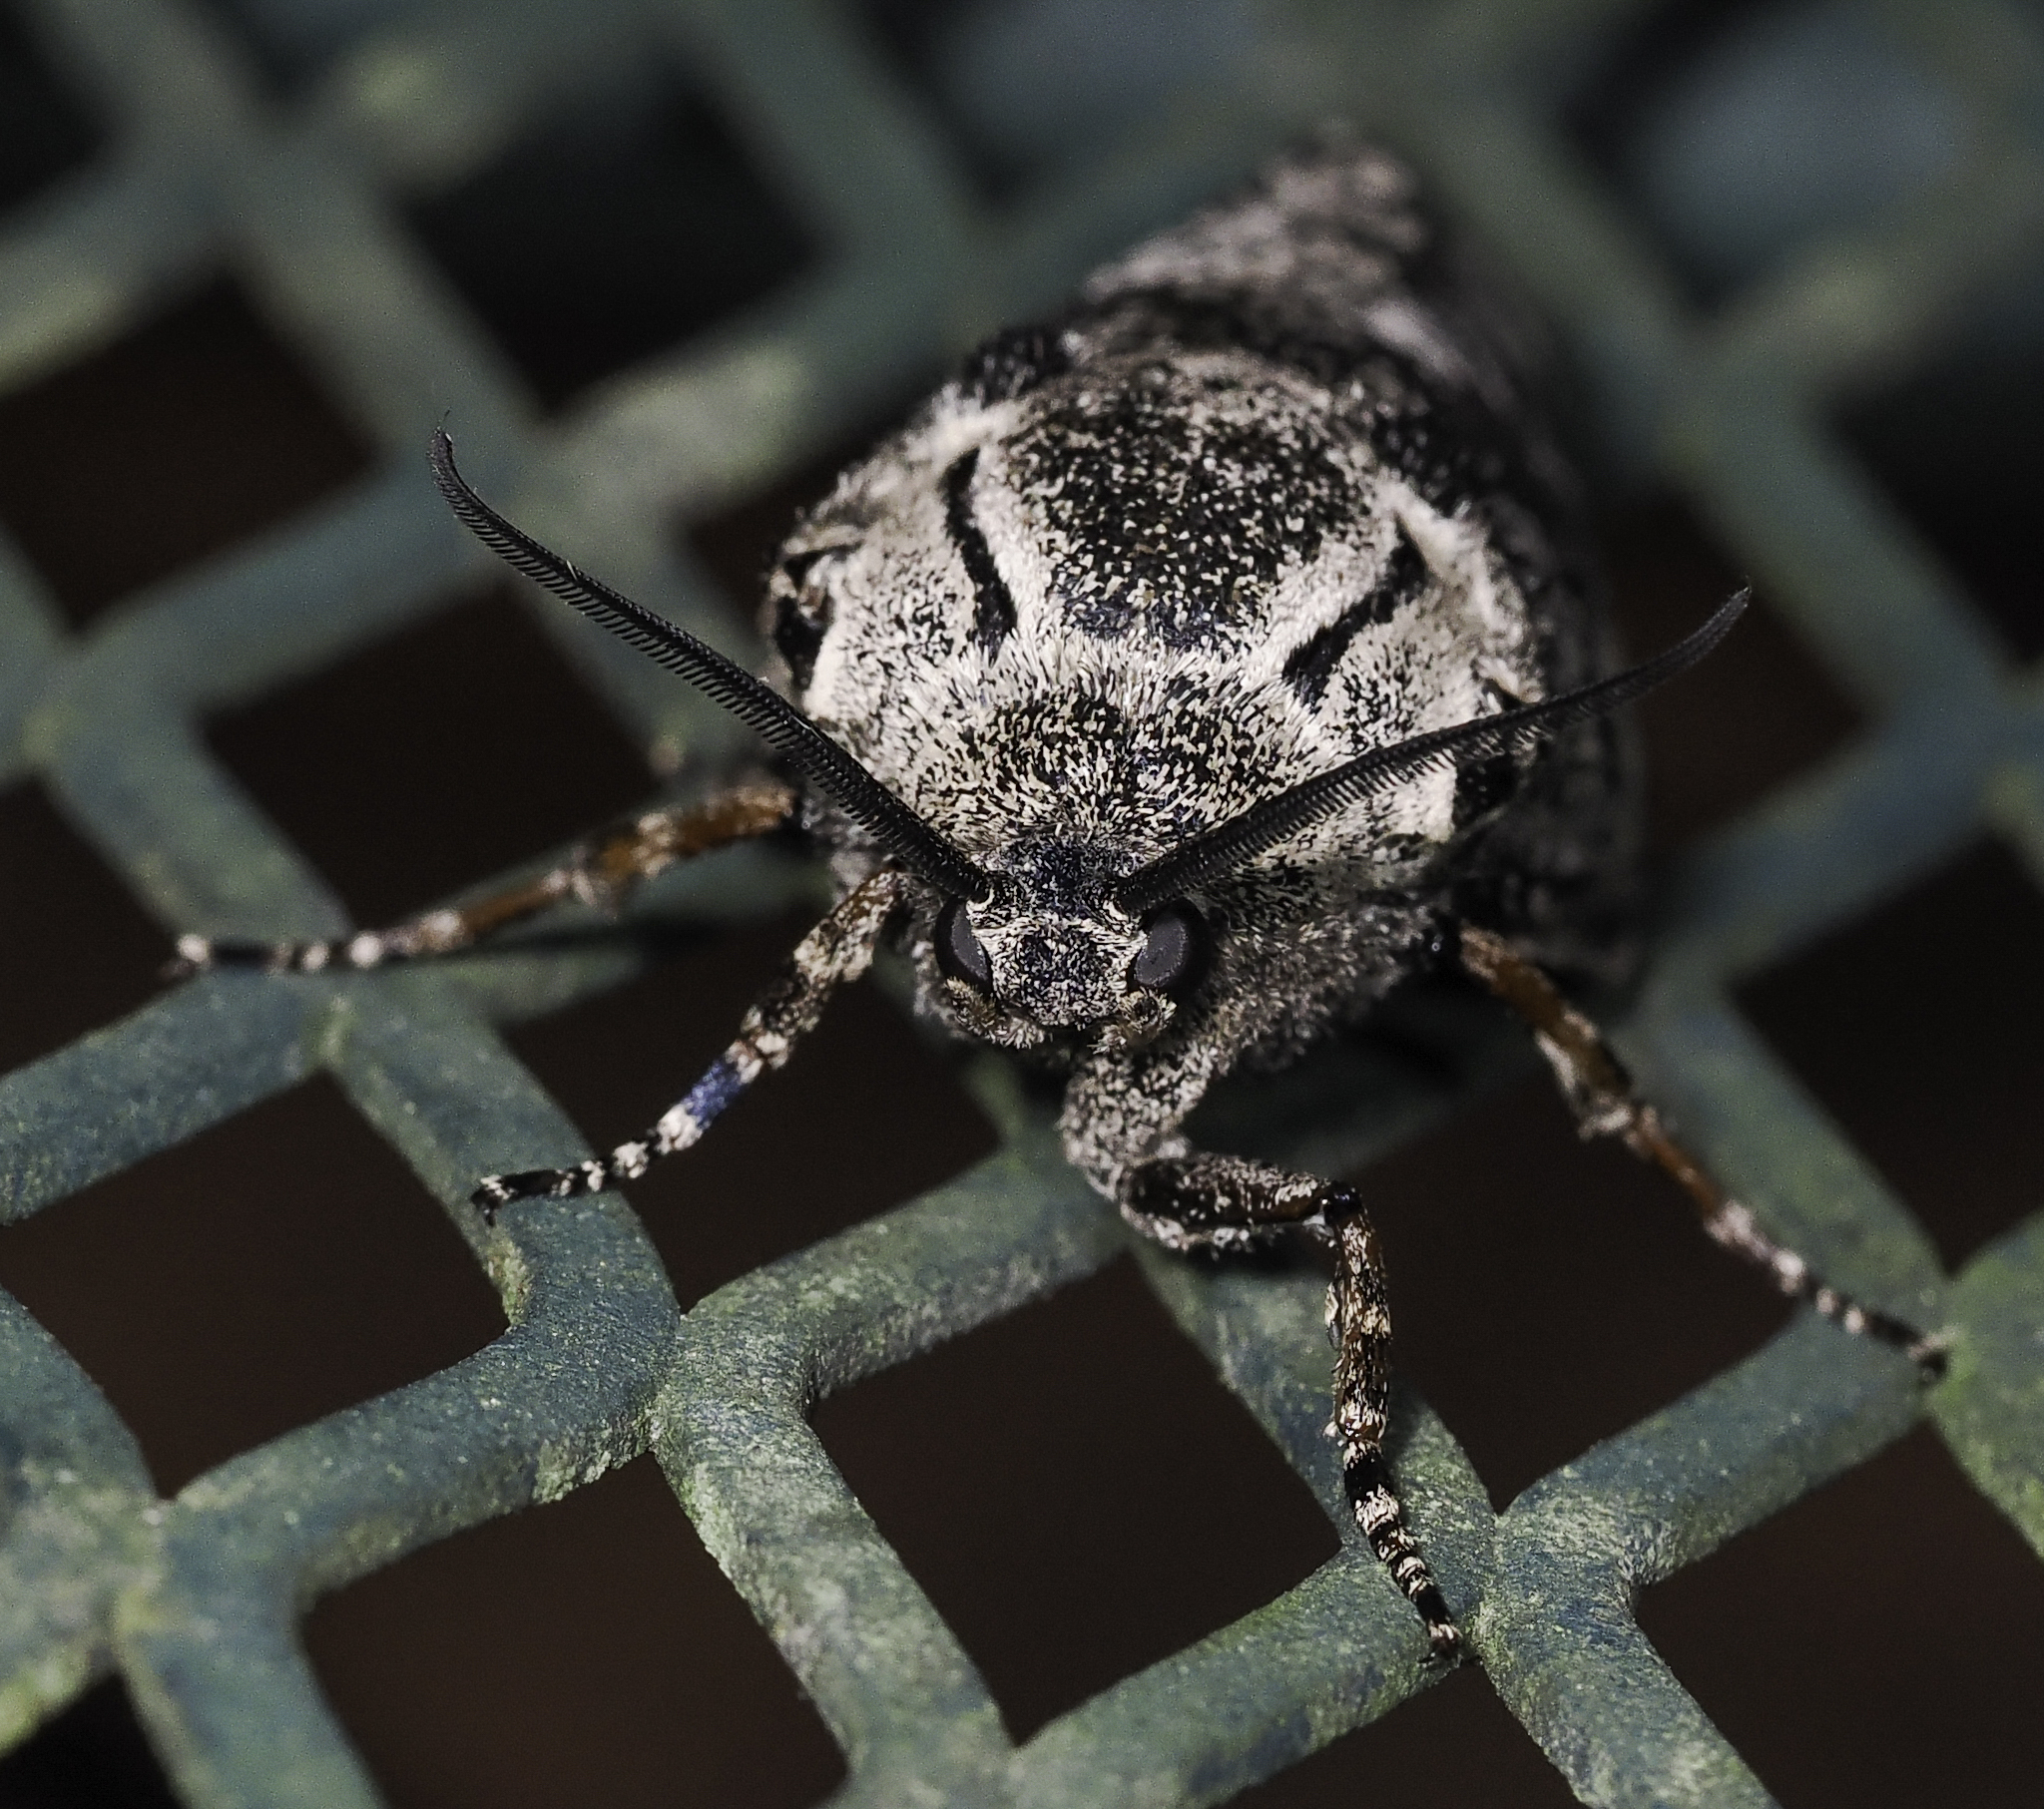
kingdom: Animalia
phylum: Arthropoda
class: Insecta
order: Lepidoptera
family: Cossidae
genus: Prionoxystus
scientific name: Prionoxystus robiniae
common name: Carpenterworm
